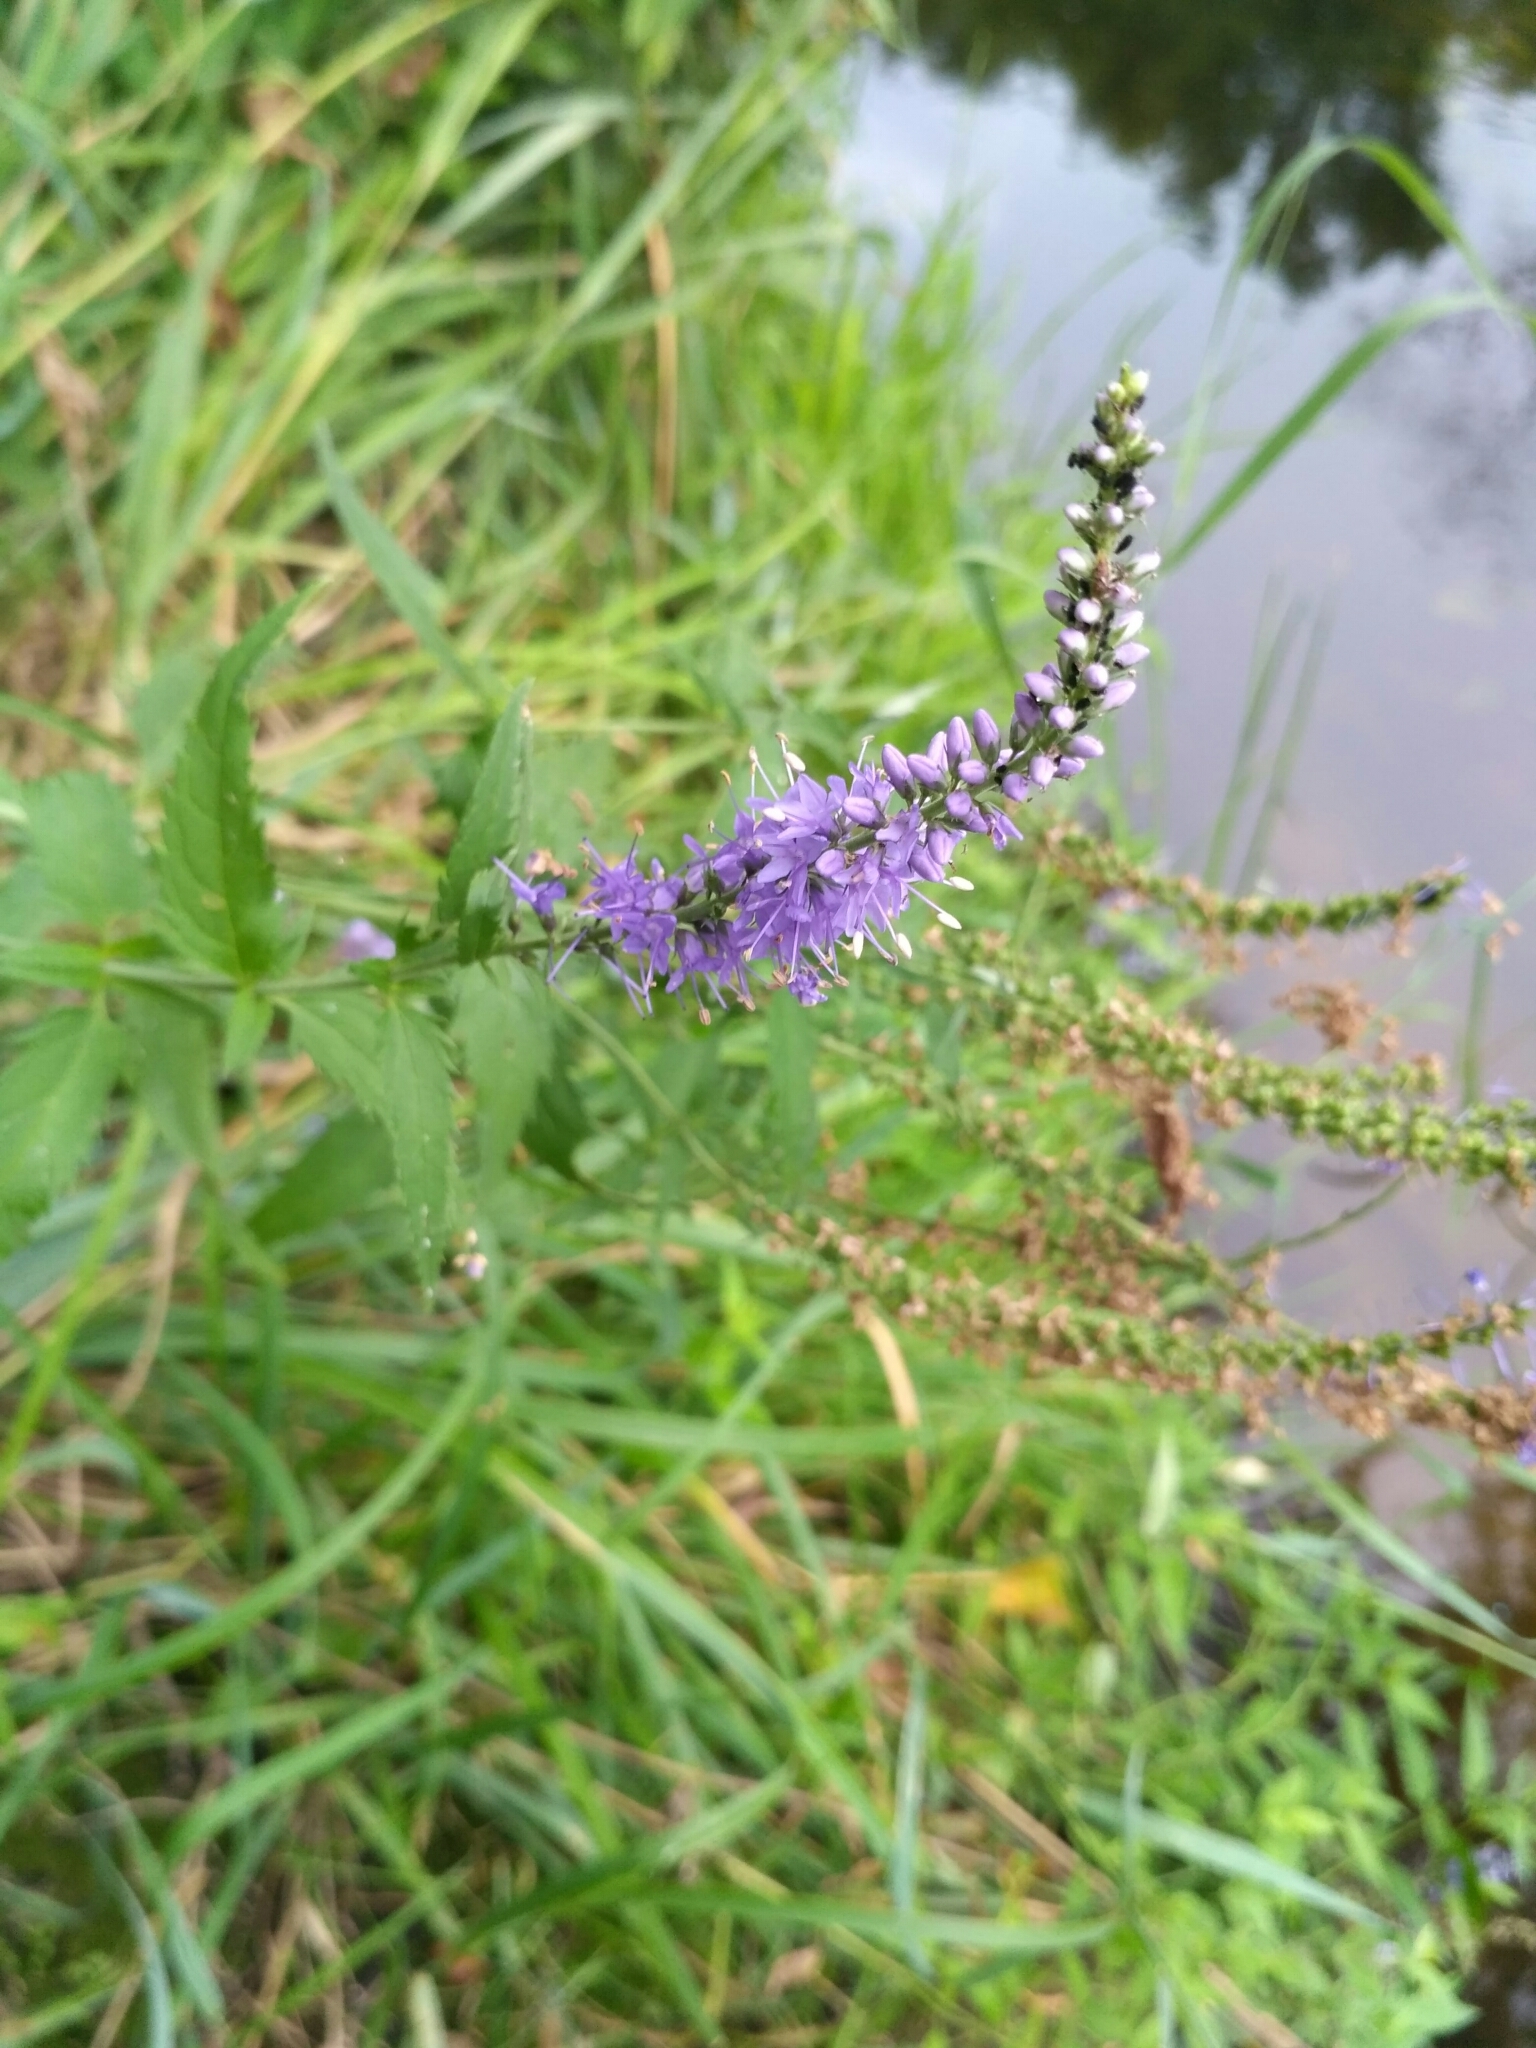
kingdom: Plantae
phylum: Tracheophyta
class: Magnoliopsida
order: Lamiales
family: Plantaginaceae
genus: Veronica
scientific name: Veronica longifolia
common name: Garden speedwell
